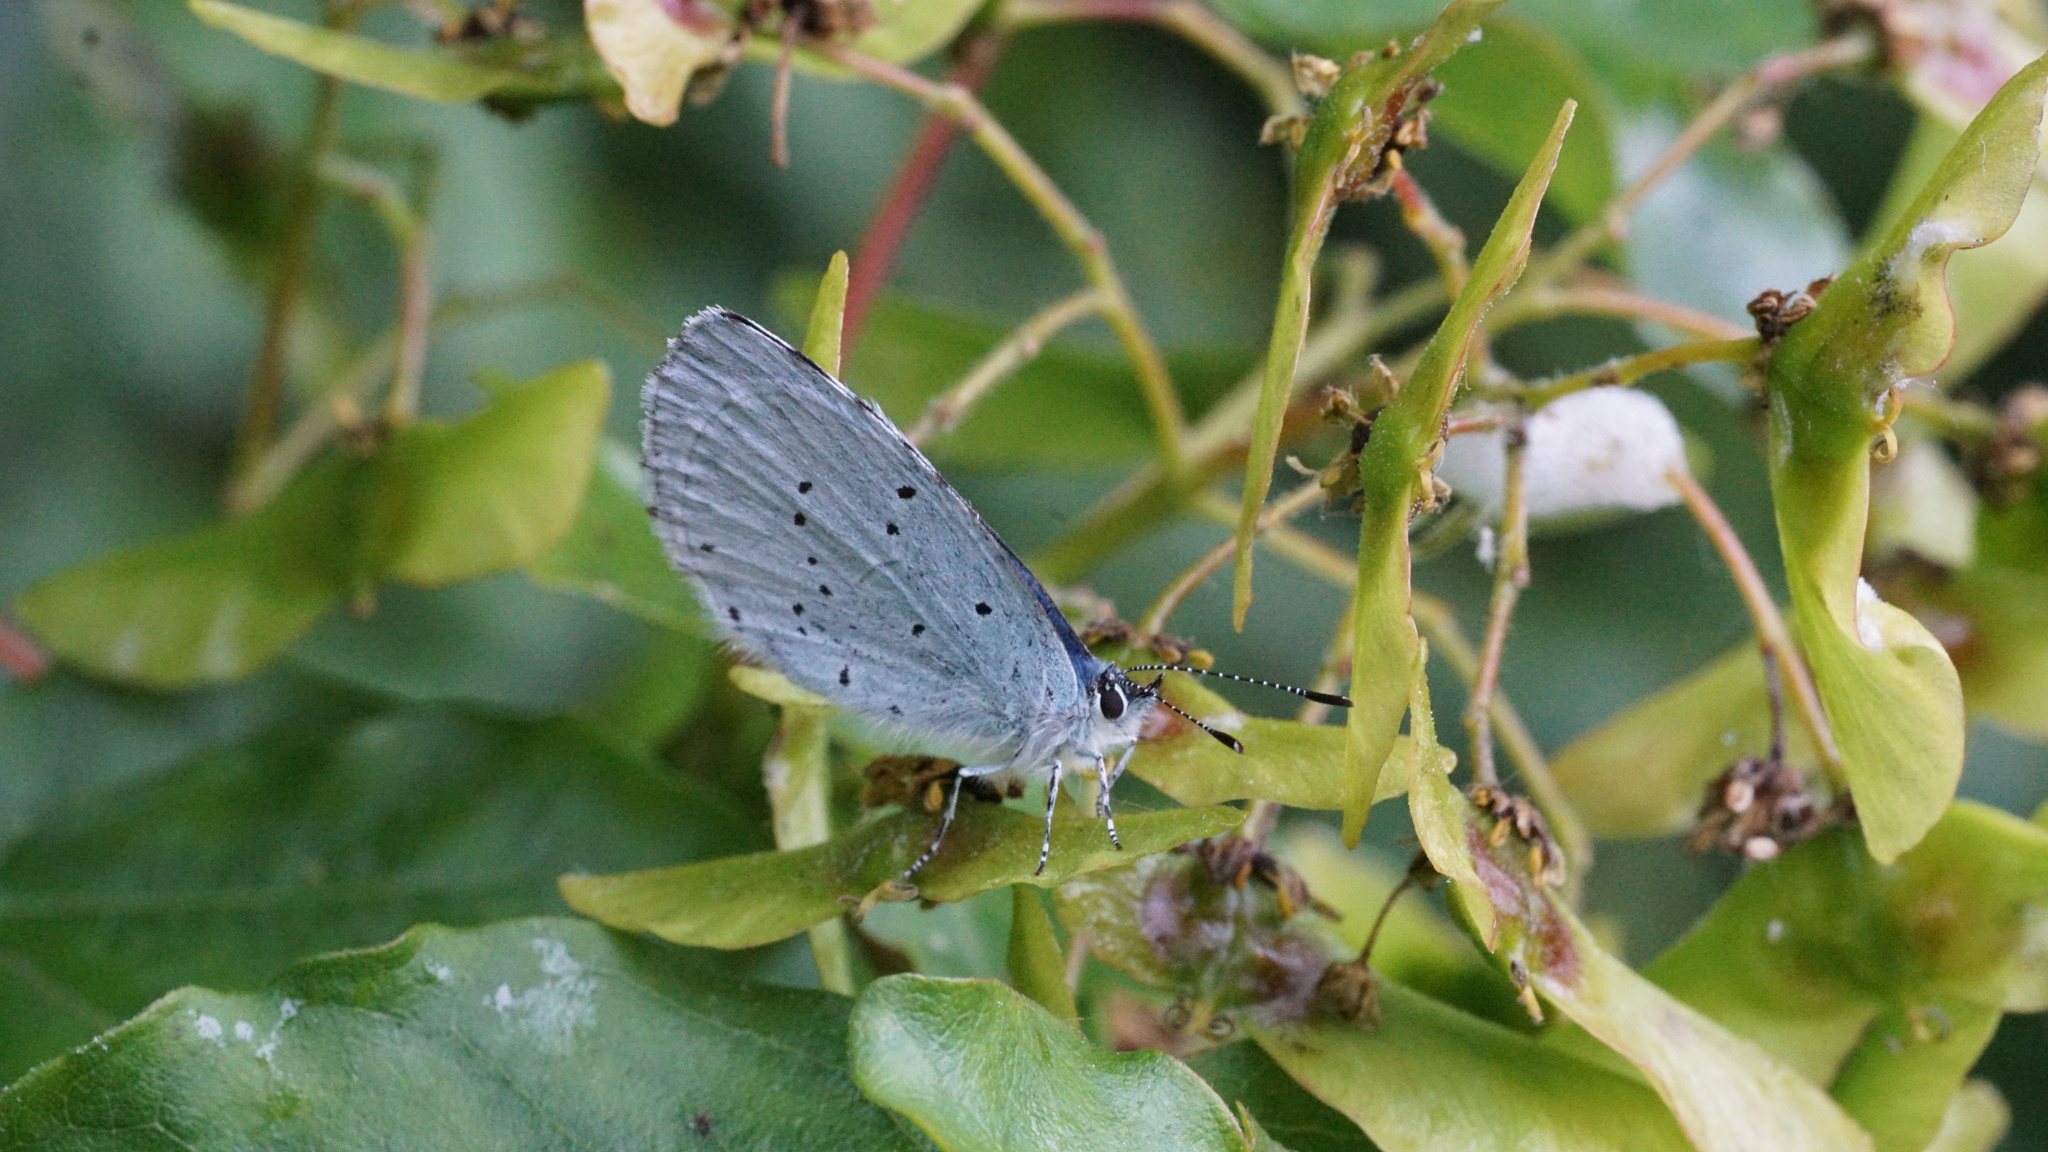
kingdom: Animalia
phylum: Arthropoda
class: Insecta
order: Lepidoptera
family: Lycaenidae
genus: Celastrina
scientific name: Celastrina argiolus
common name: Holly blue
